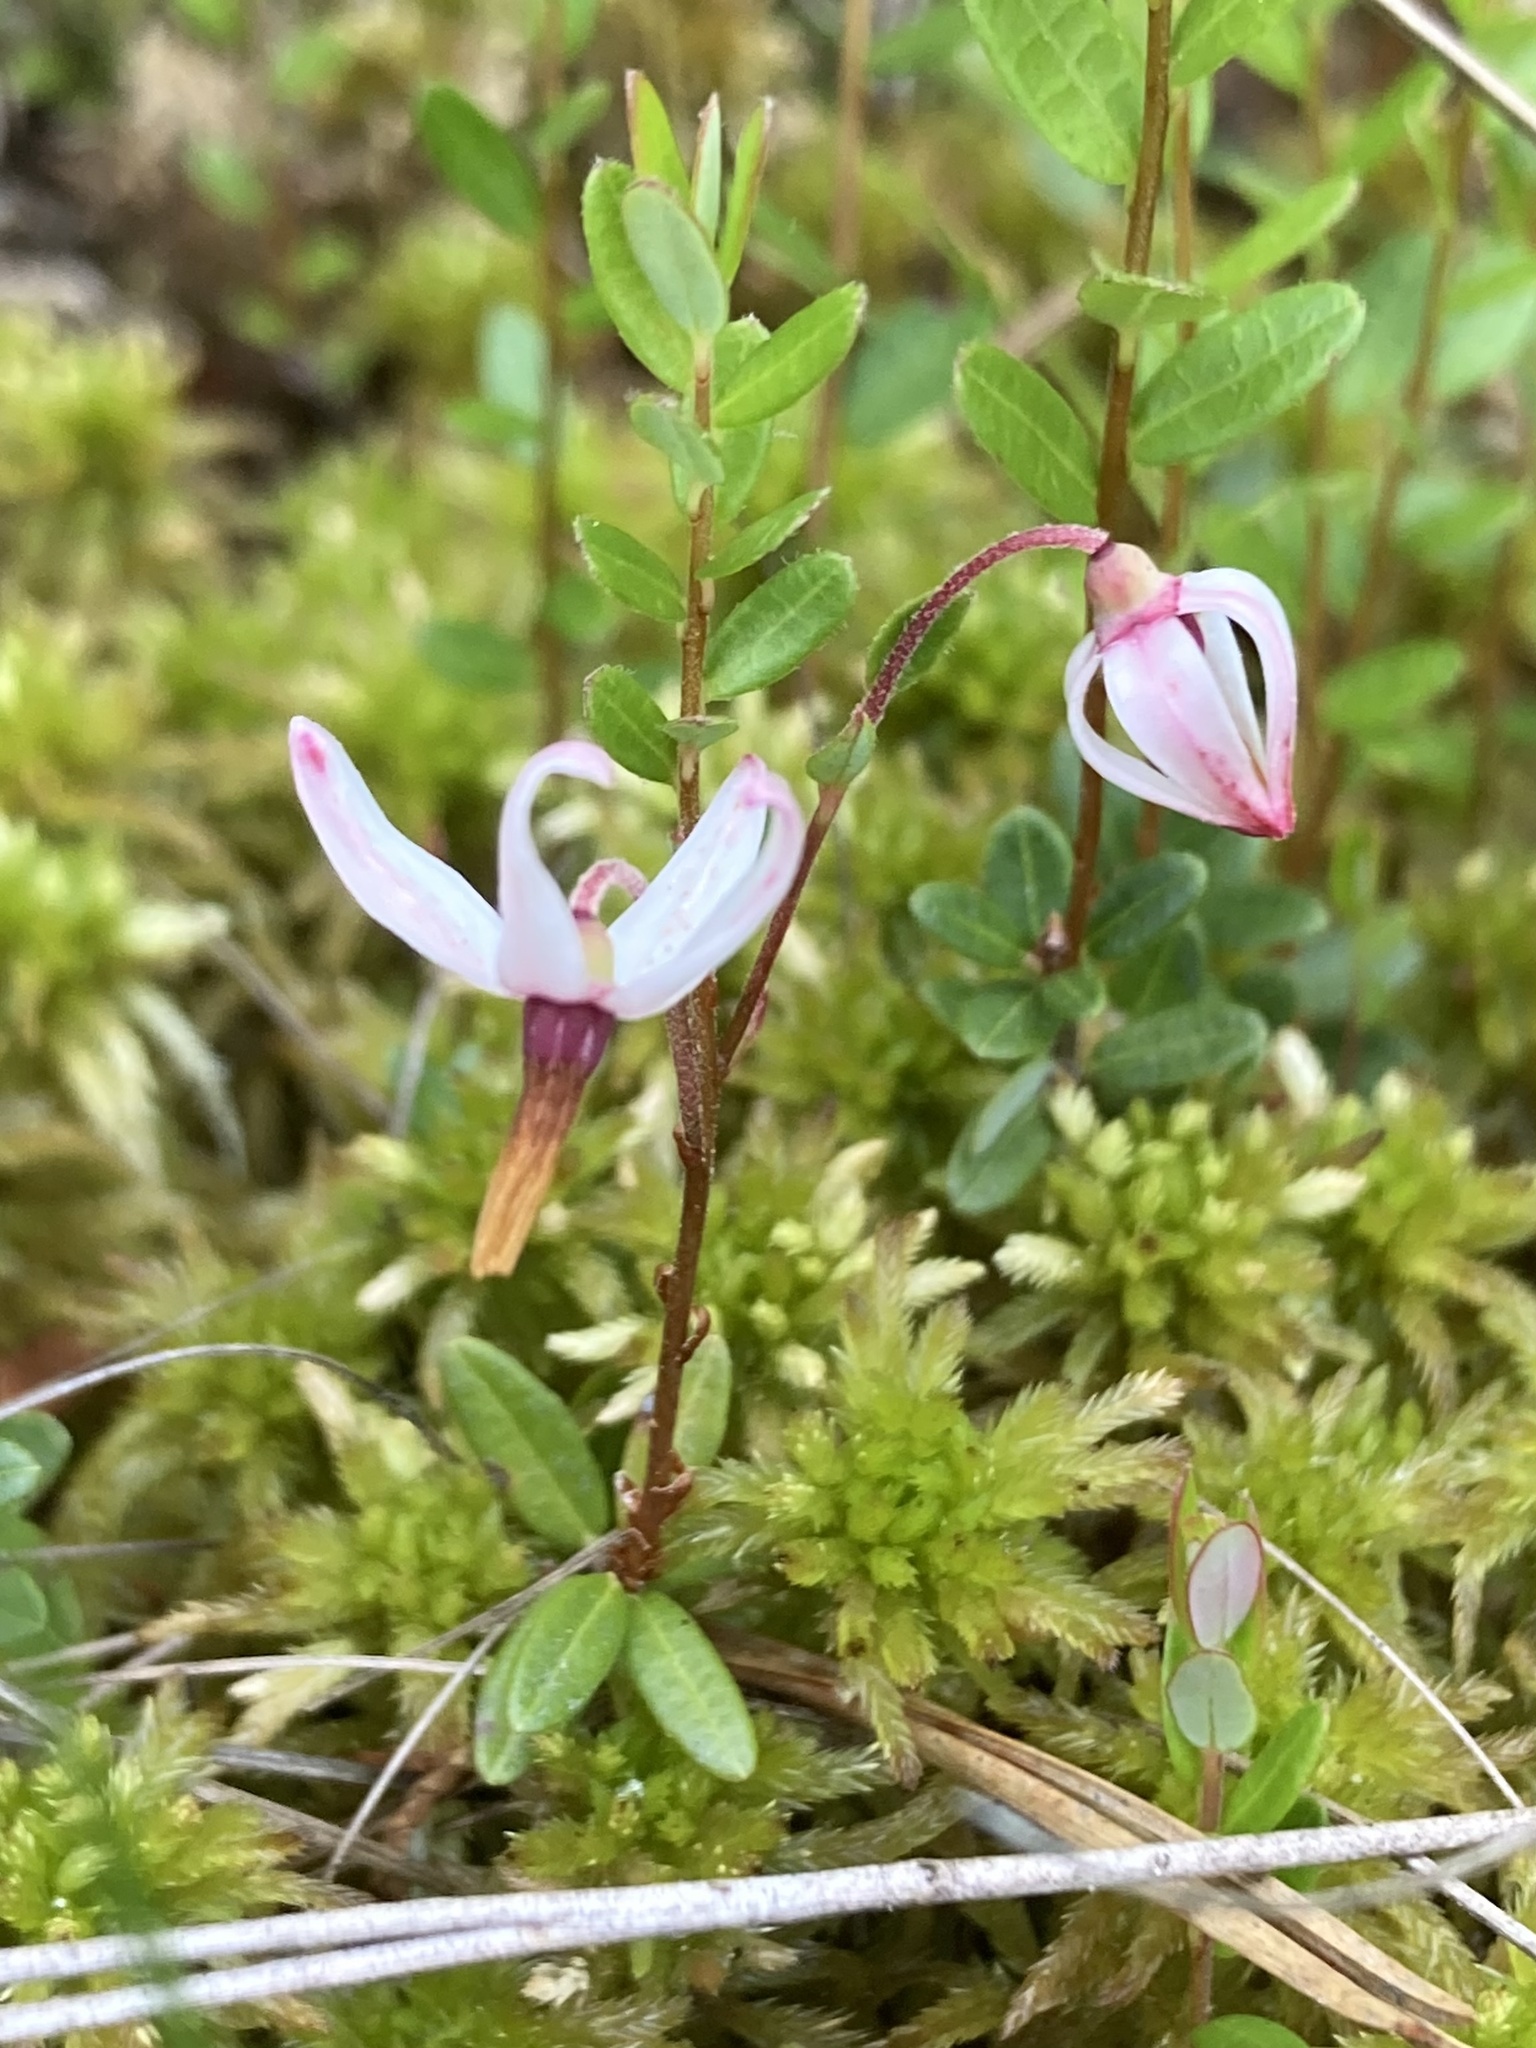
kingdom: Plantae
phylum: Tracheophyta
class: Magnoliopsida
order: Ericales
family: Ericaceae
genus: Vaccinium
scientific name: Vaccinium macrocarpon
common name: American cranberry
